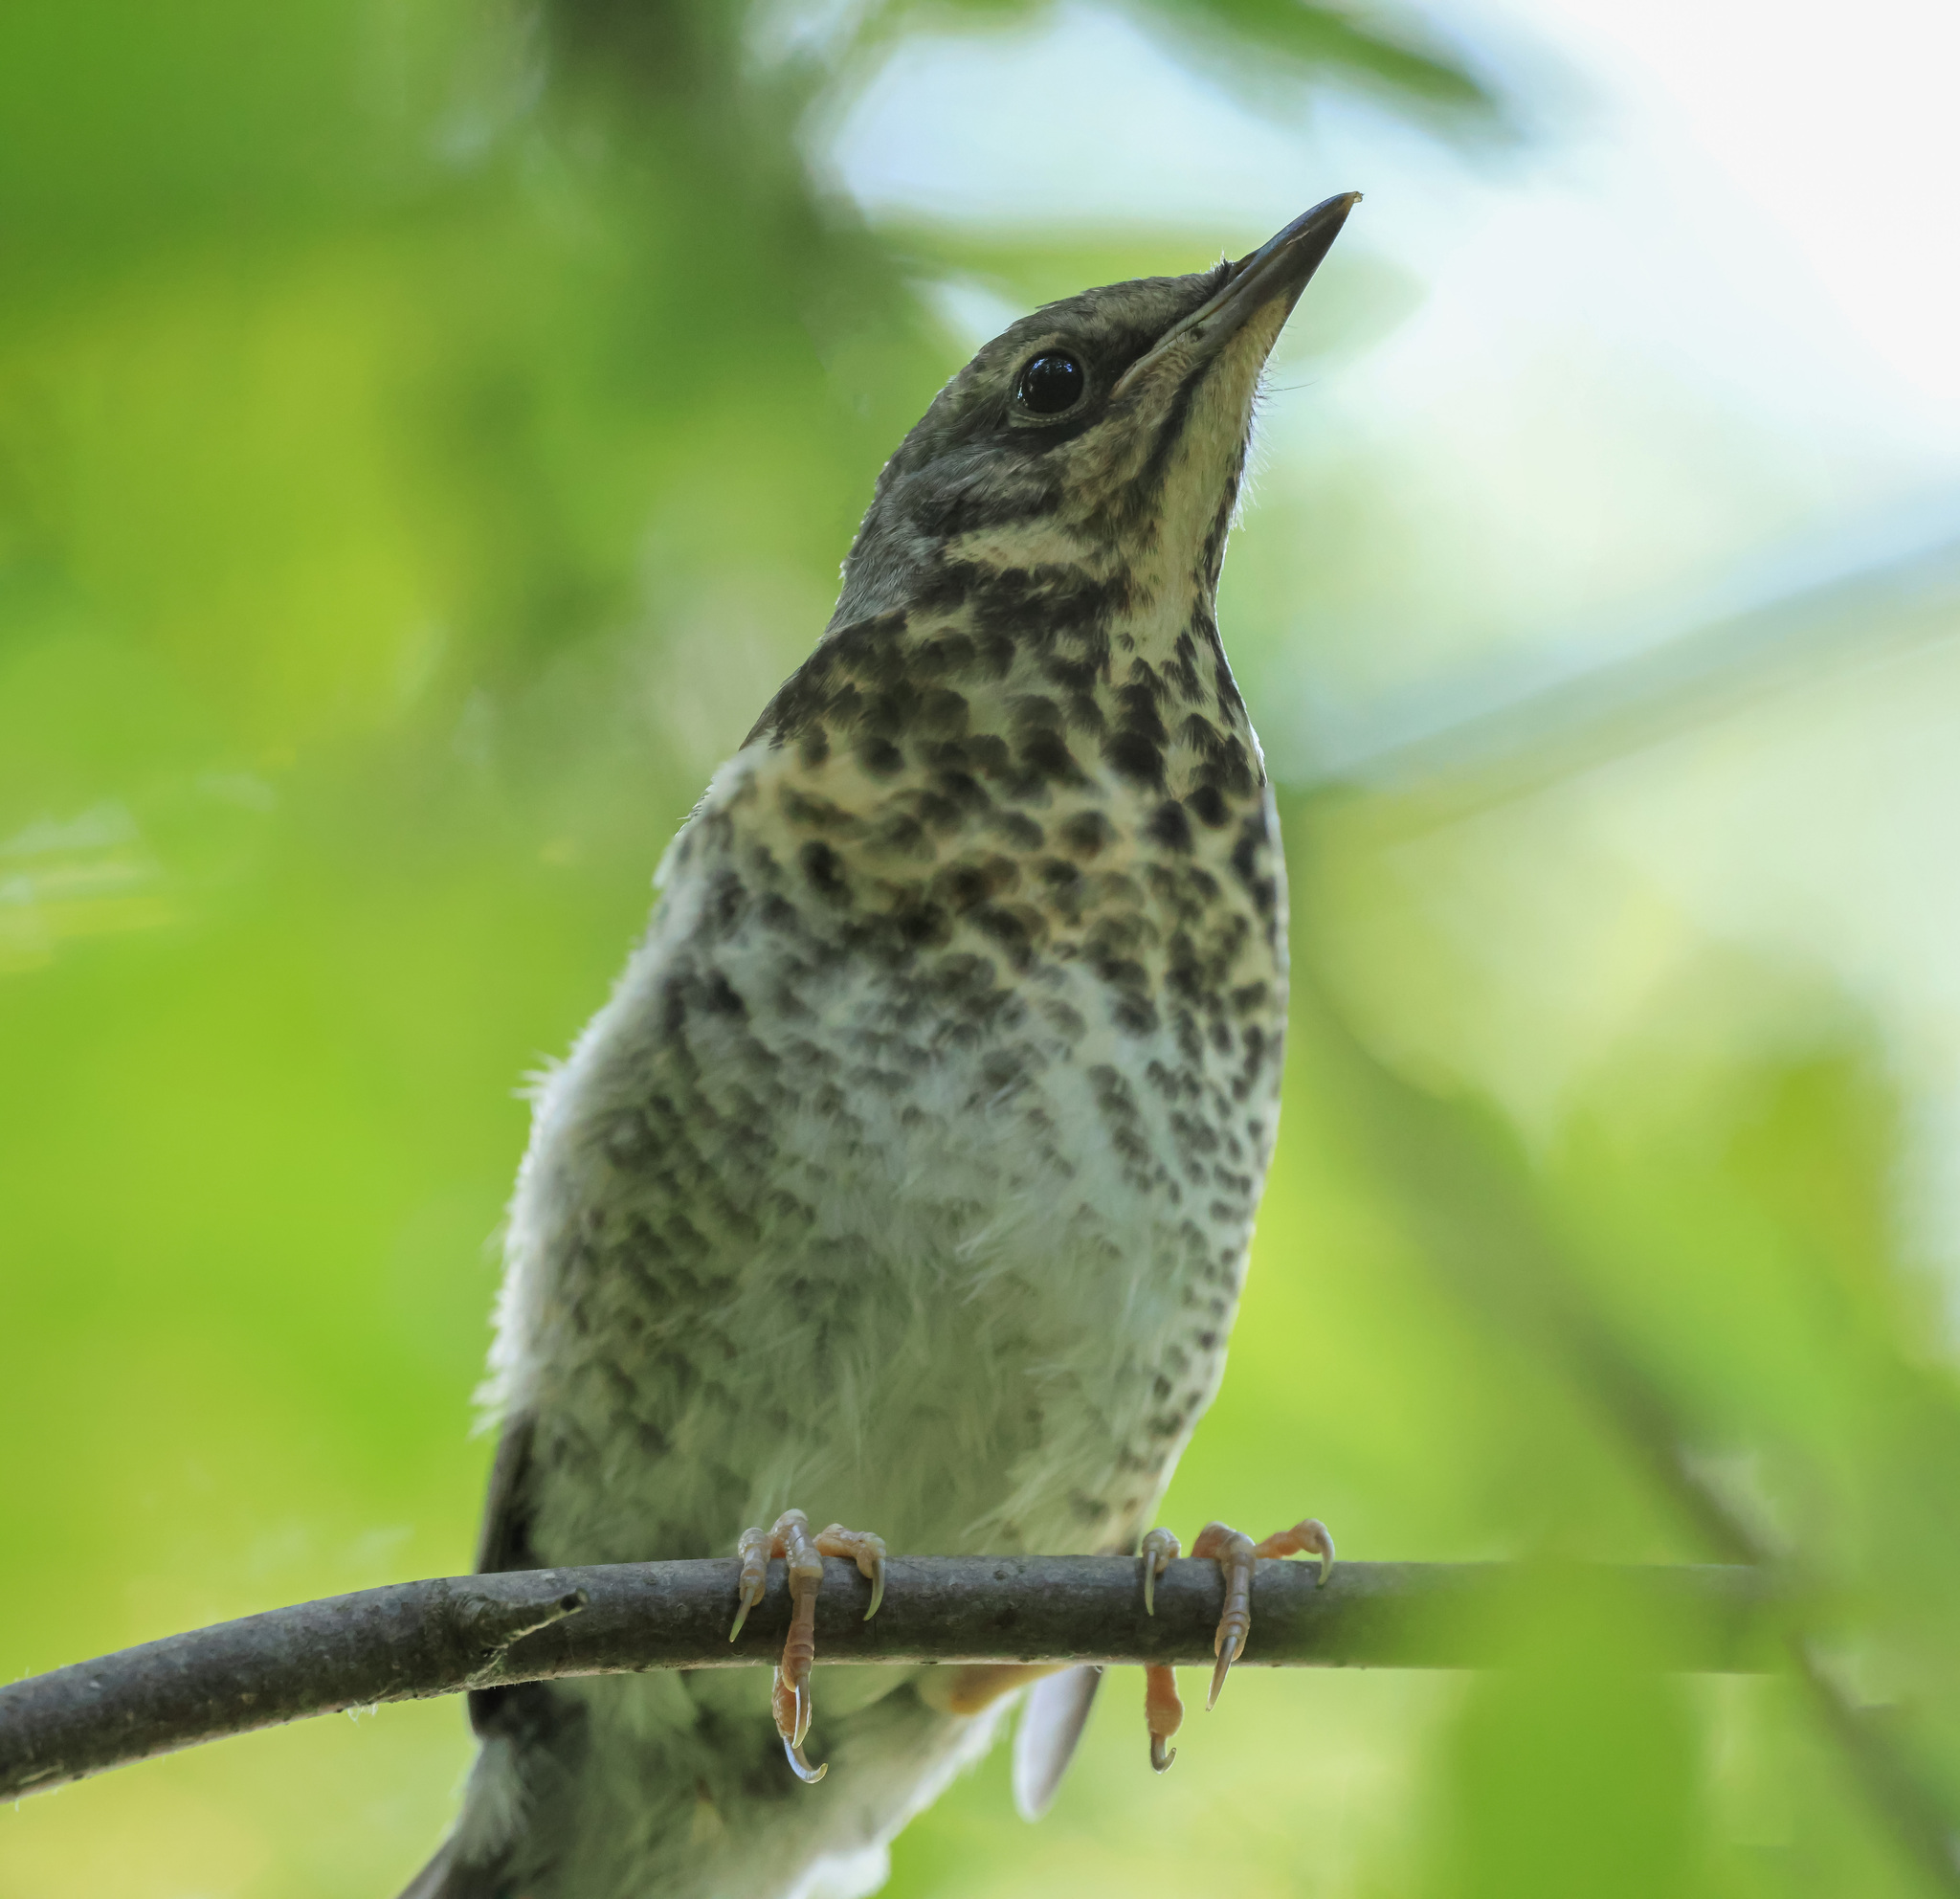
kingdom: Animalia
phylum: Chordata
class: Aves
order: Passeriformes
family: Turdidae
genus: Turdus
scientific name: Turdus pilaris
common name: Fieldfare
